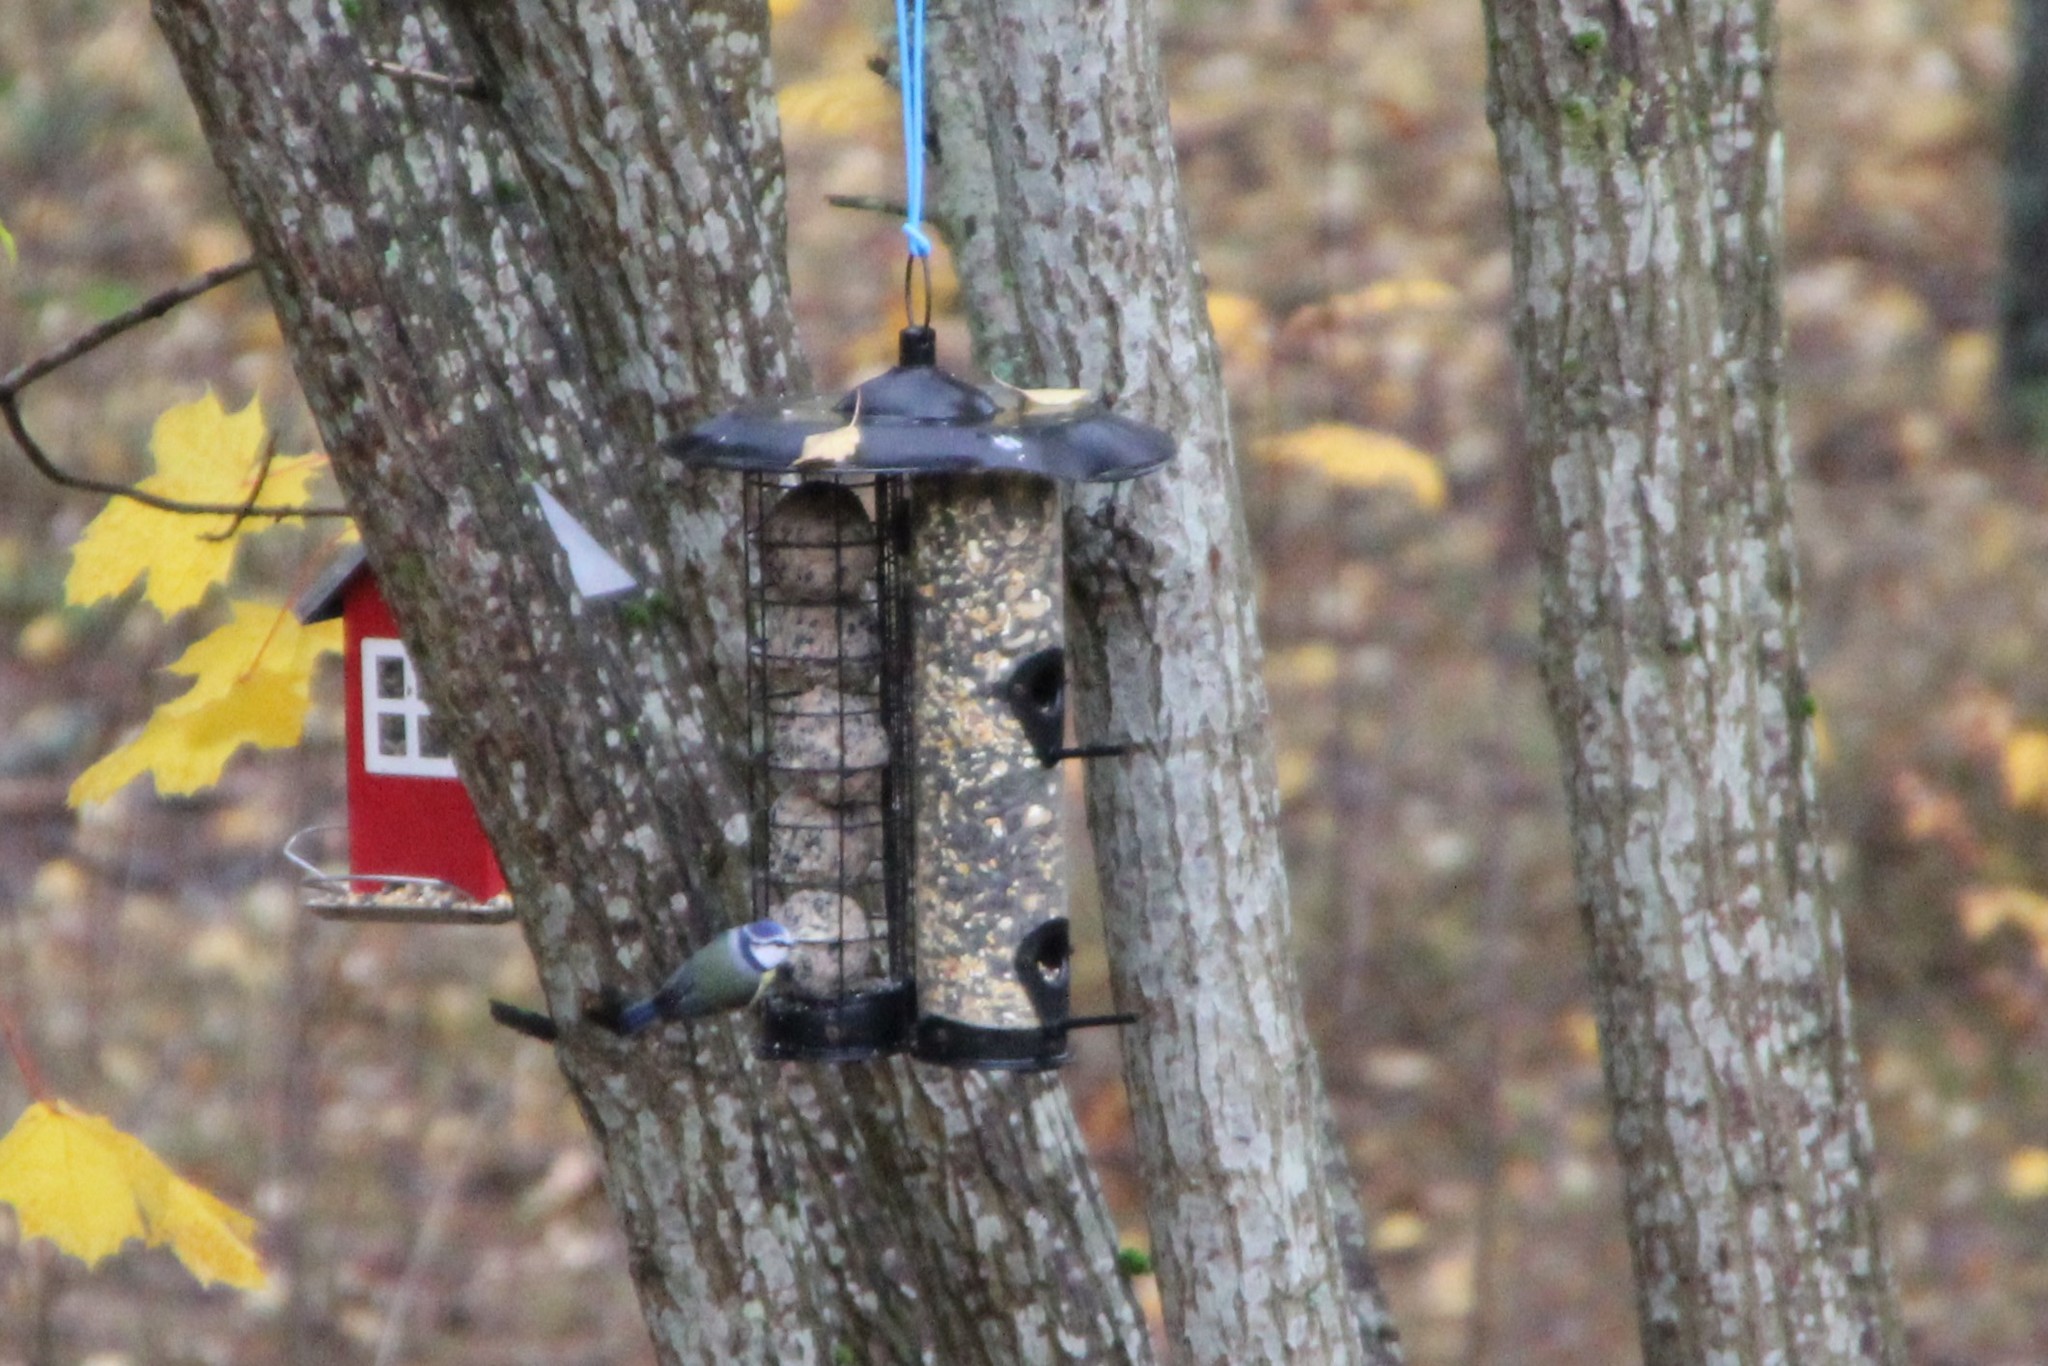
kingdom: Animalia
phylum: Chordata
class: Aves
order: Passeriformes
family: Paridae
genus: Cyanistes
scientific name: Cyanistes caeruleus
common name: Eurasian blue tit
